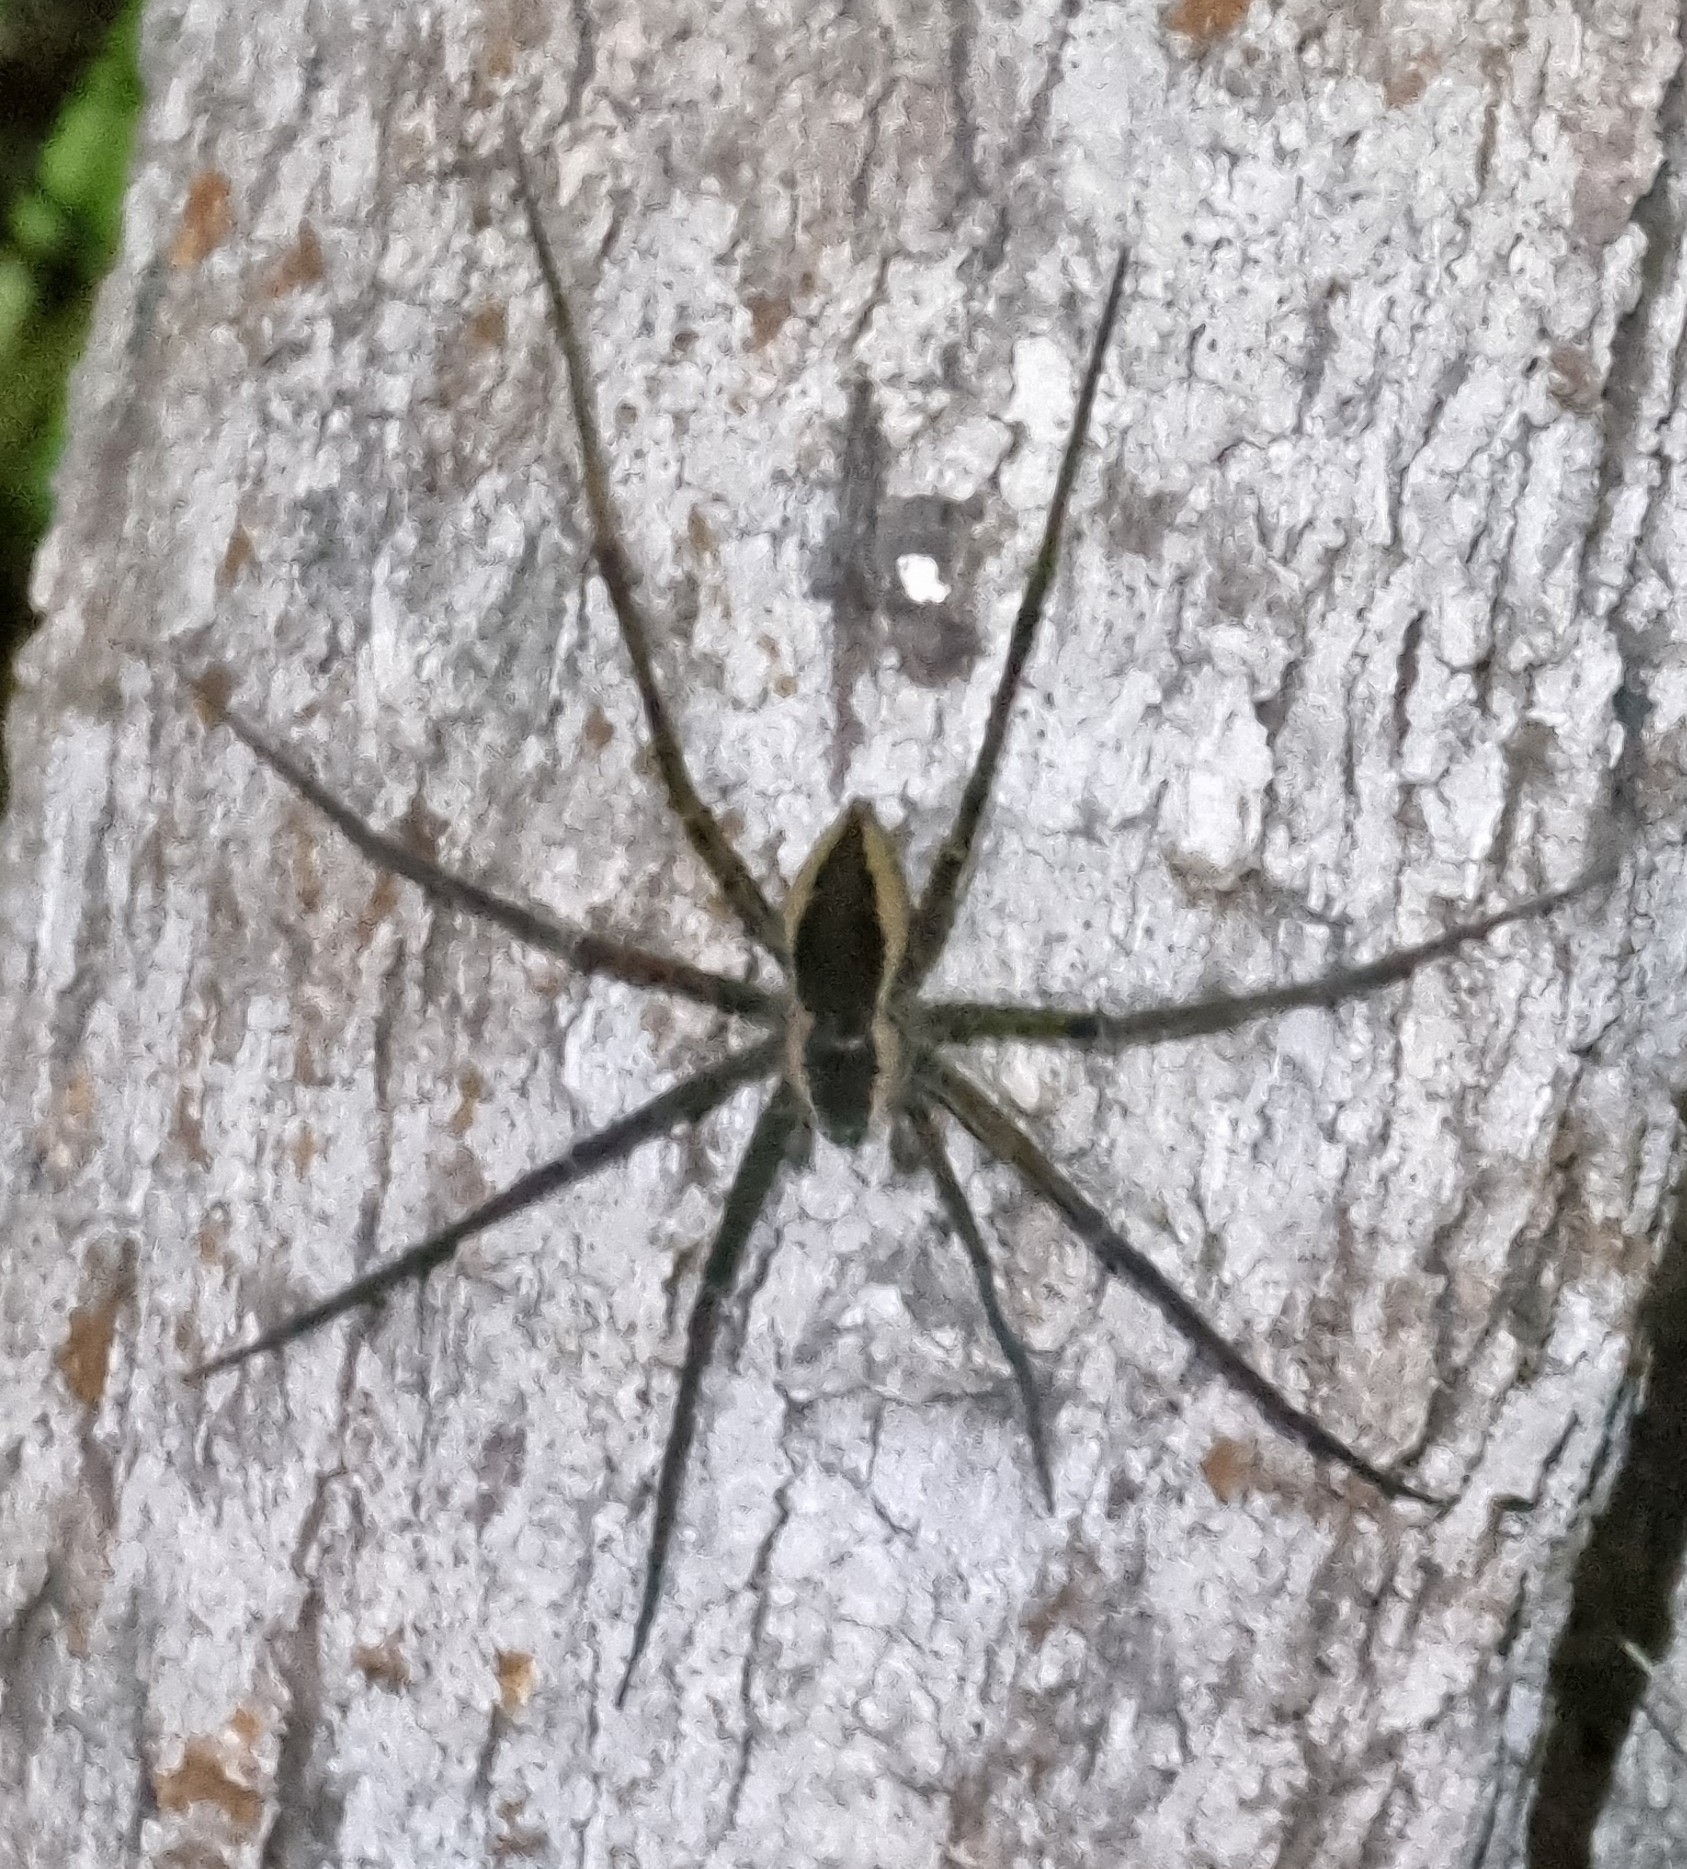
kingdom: Animalia
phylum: Arthropoda
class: Arachnida
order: Araneae
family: Pisauridae
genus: Megadolomedes
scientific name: Megadolomedes trux
